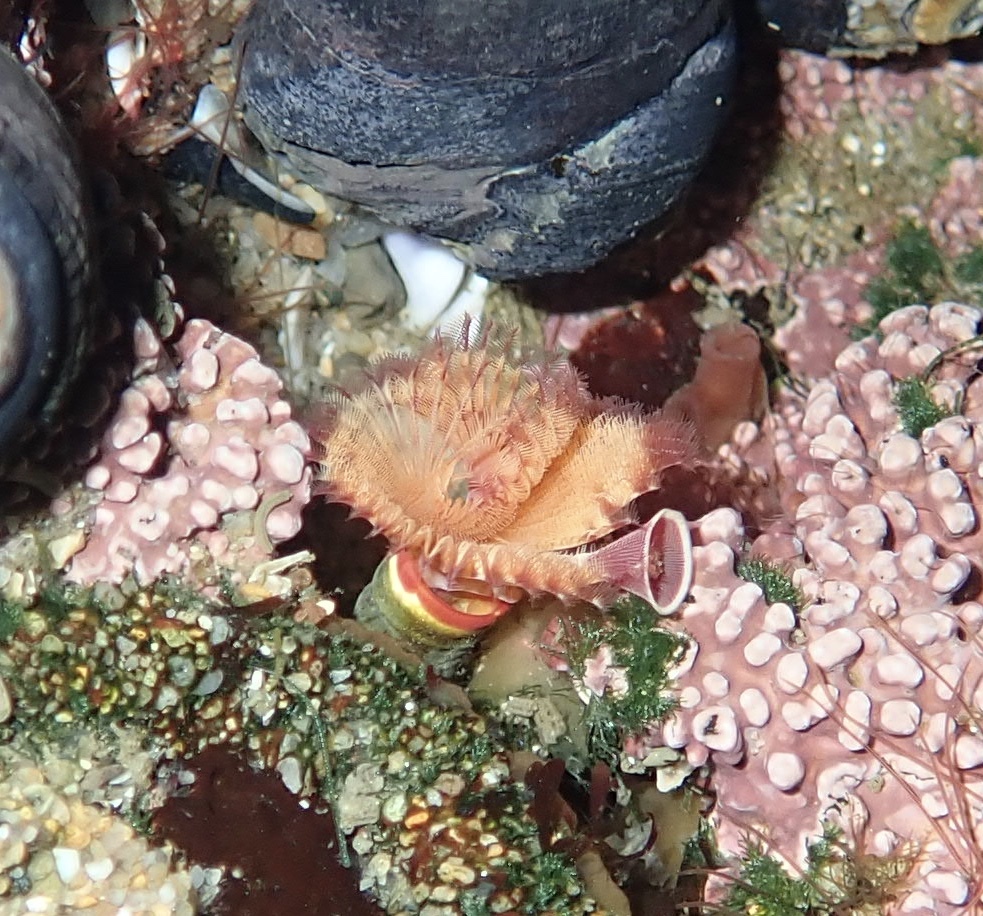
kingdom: Animalia
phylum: Annelida
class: Polychaeta
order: Sabellida
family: Serpulidae
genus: Serpula
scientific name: Serpula columbiana
